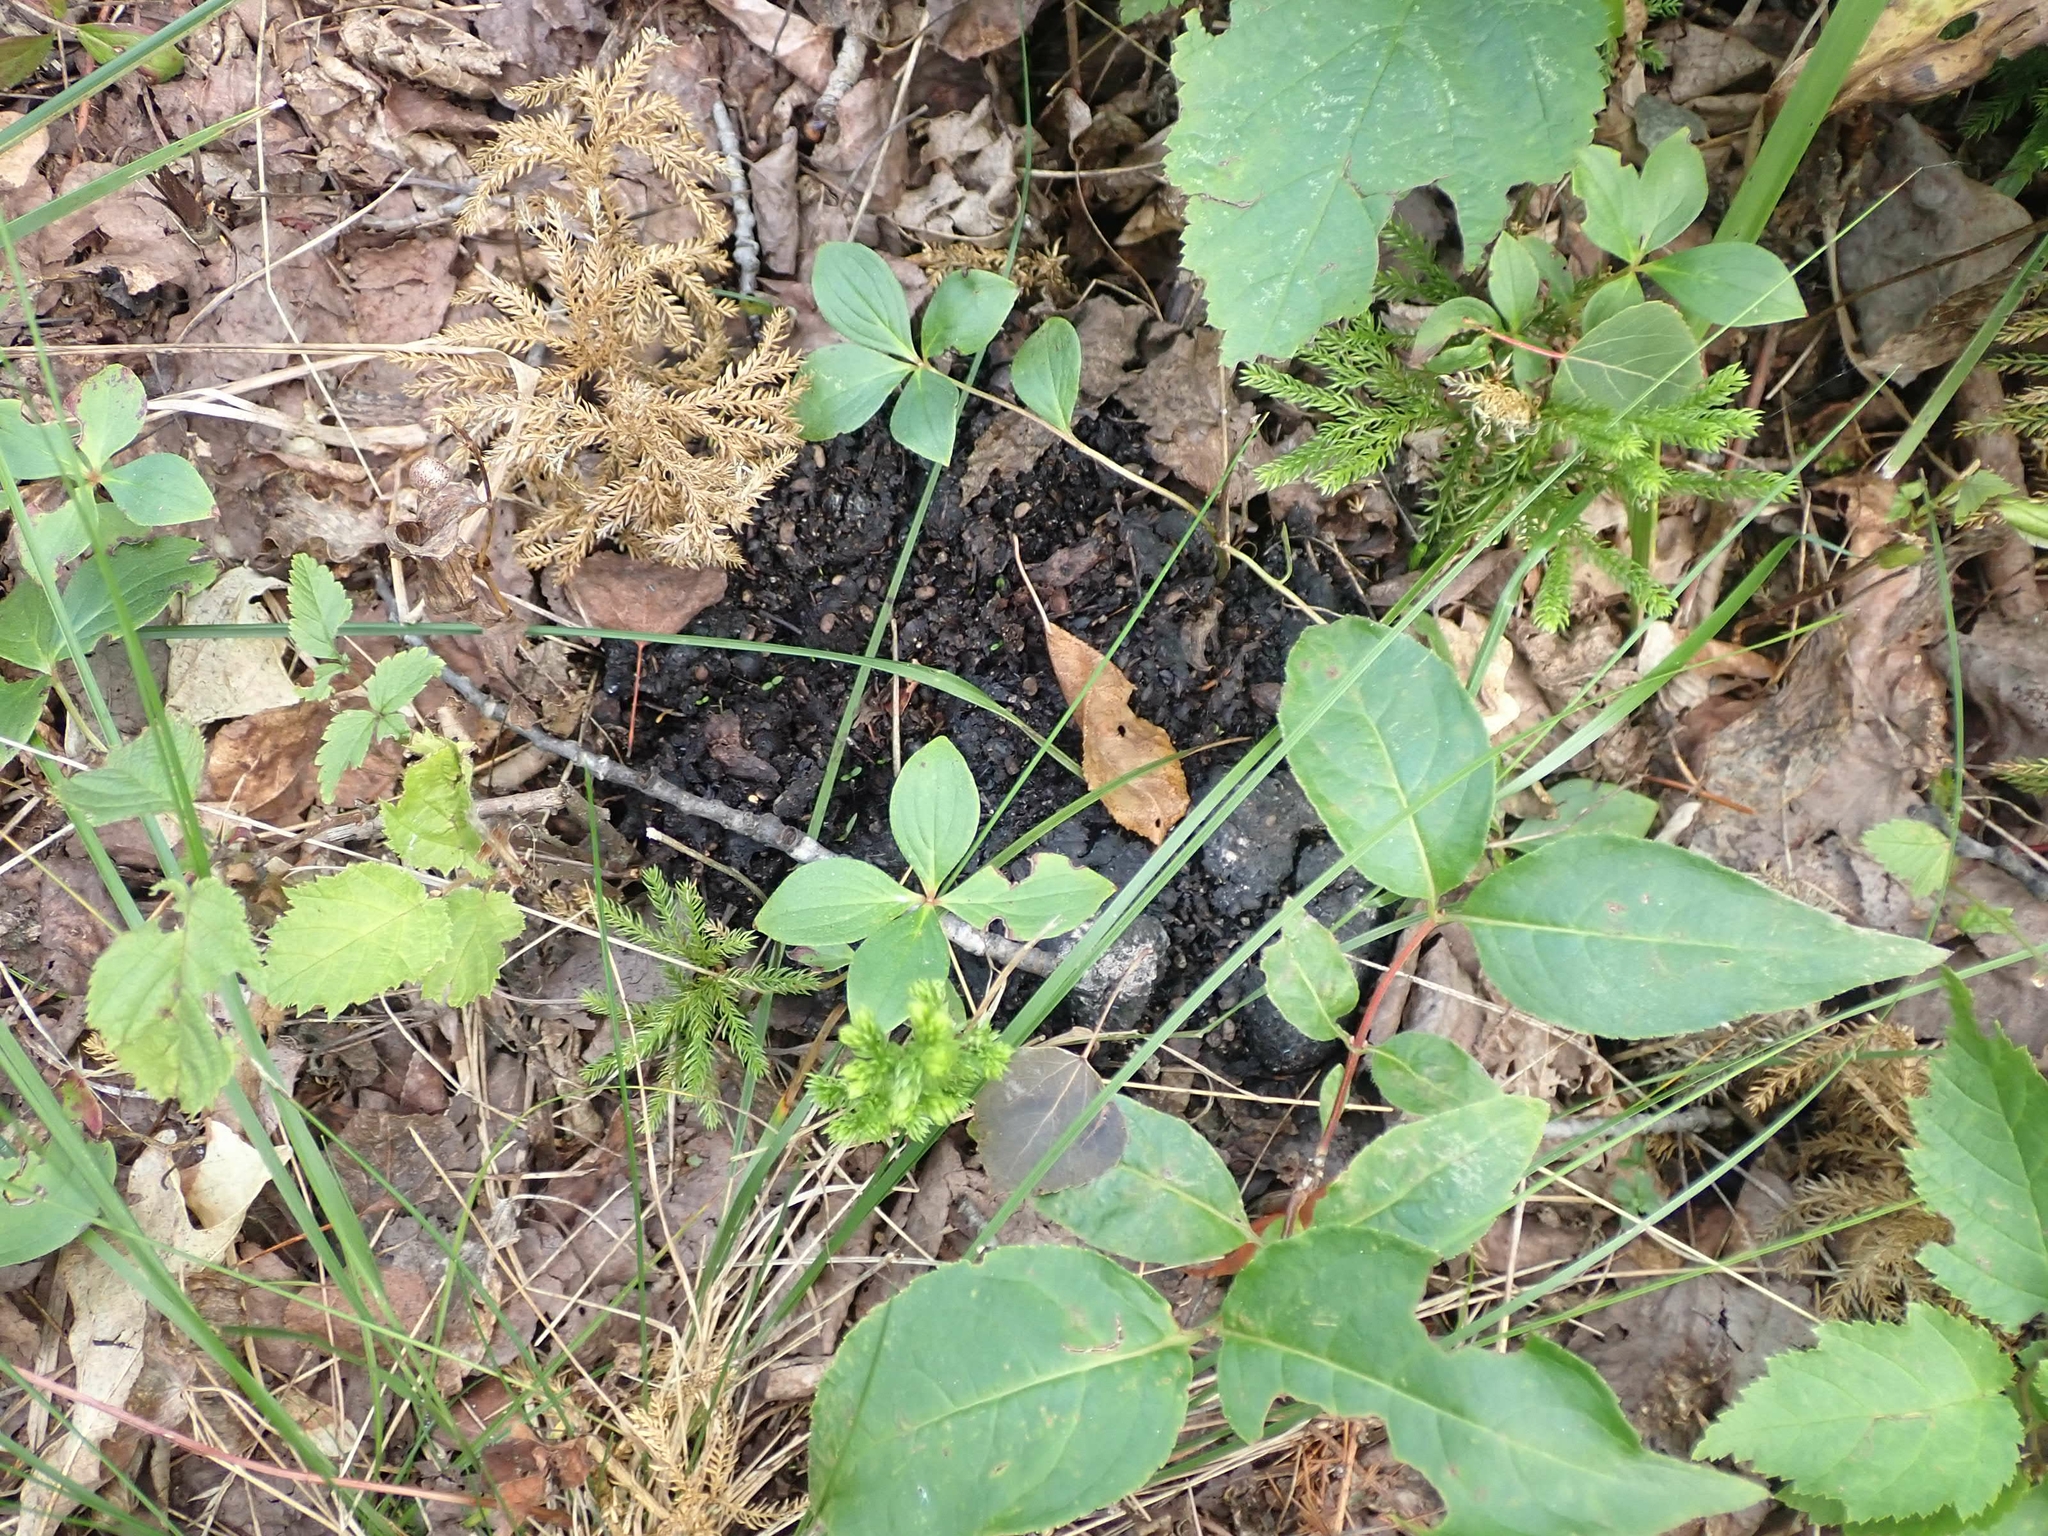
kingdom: Animalia
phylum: Chordata
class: Mammalia
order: Carnivora
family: Ursidae
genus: Ursus
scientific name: Ursus americanus
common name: American black bear
